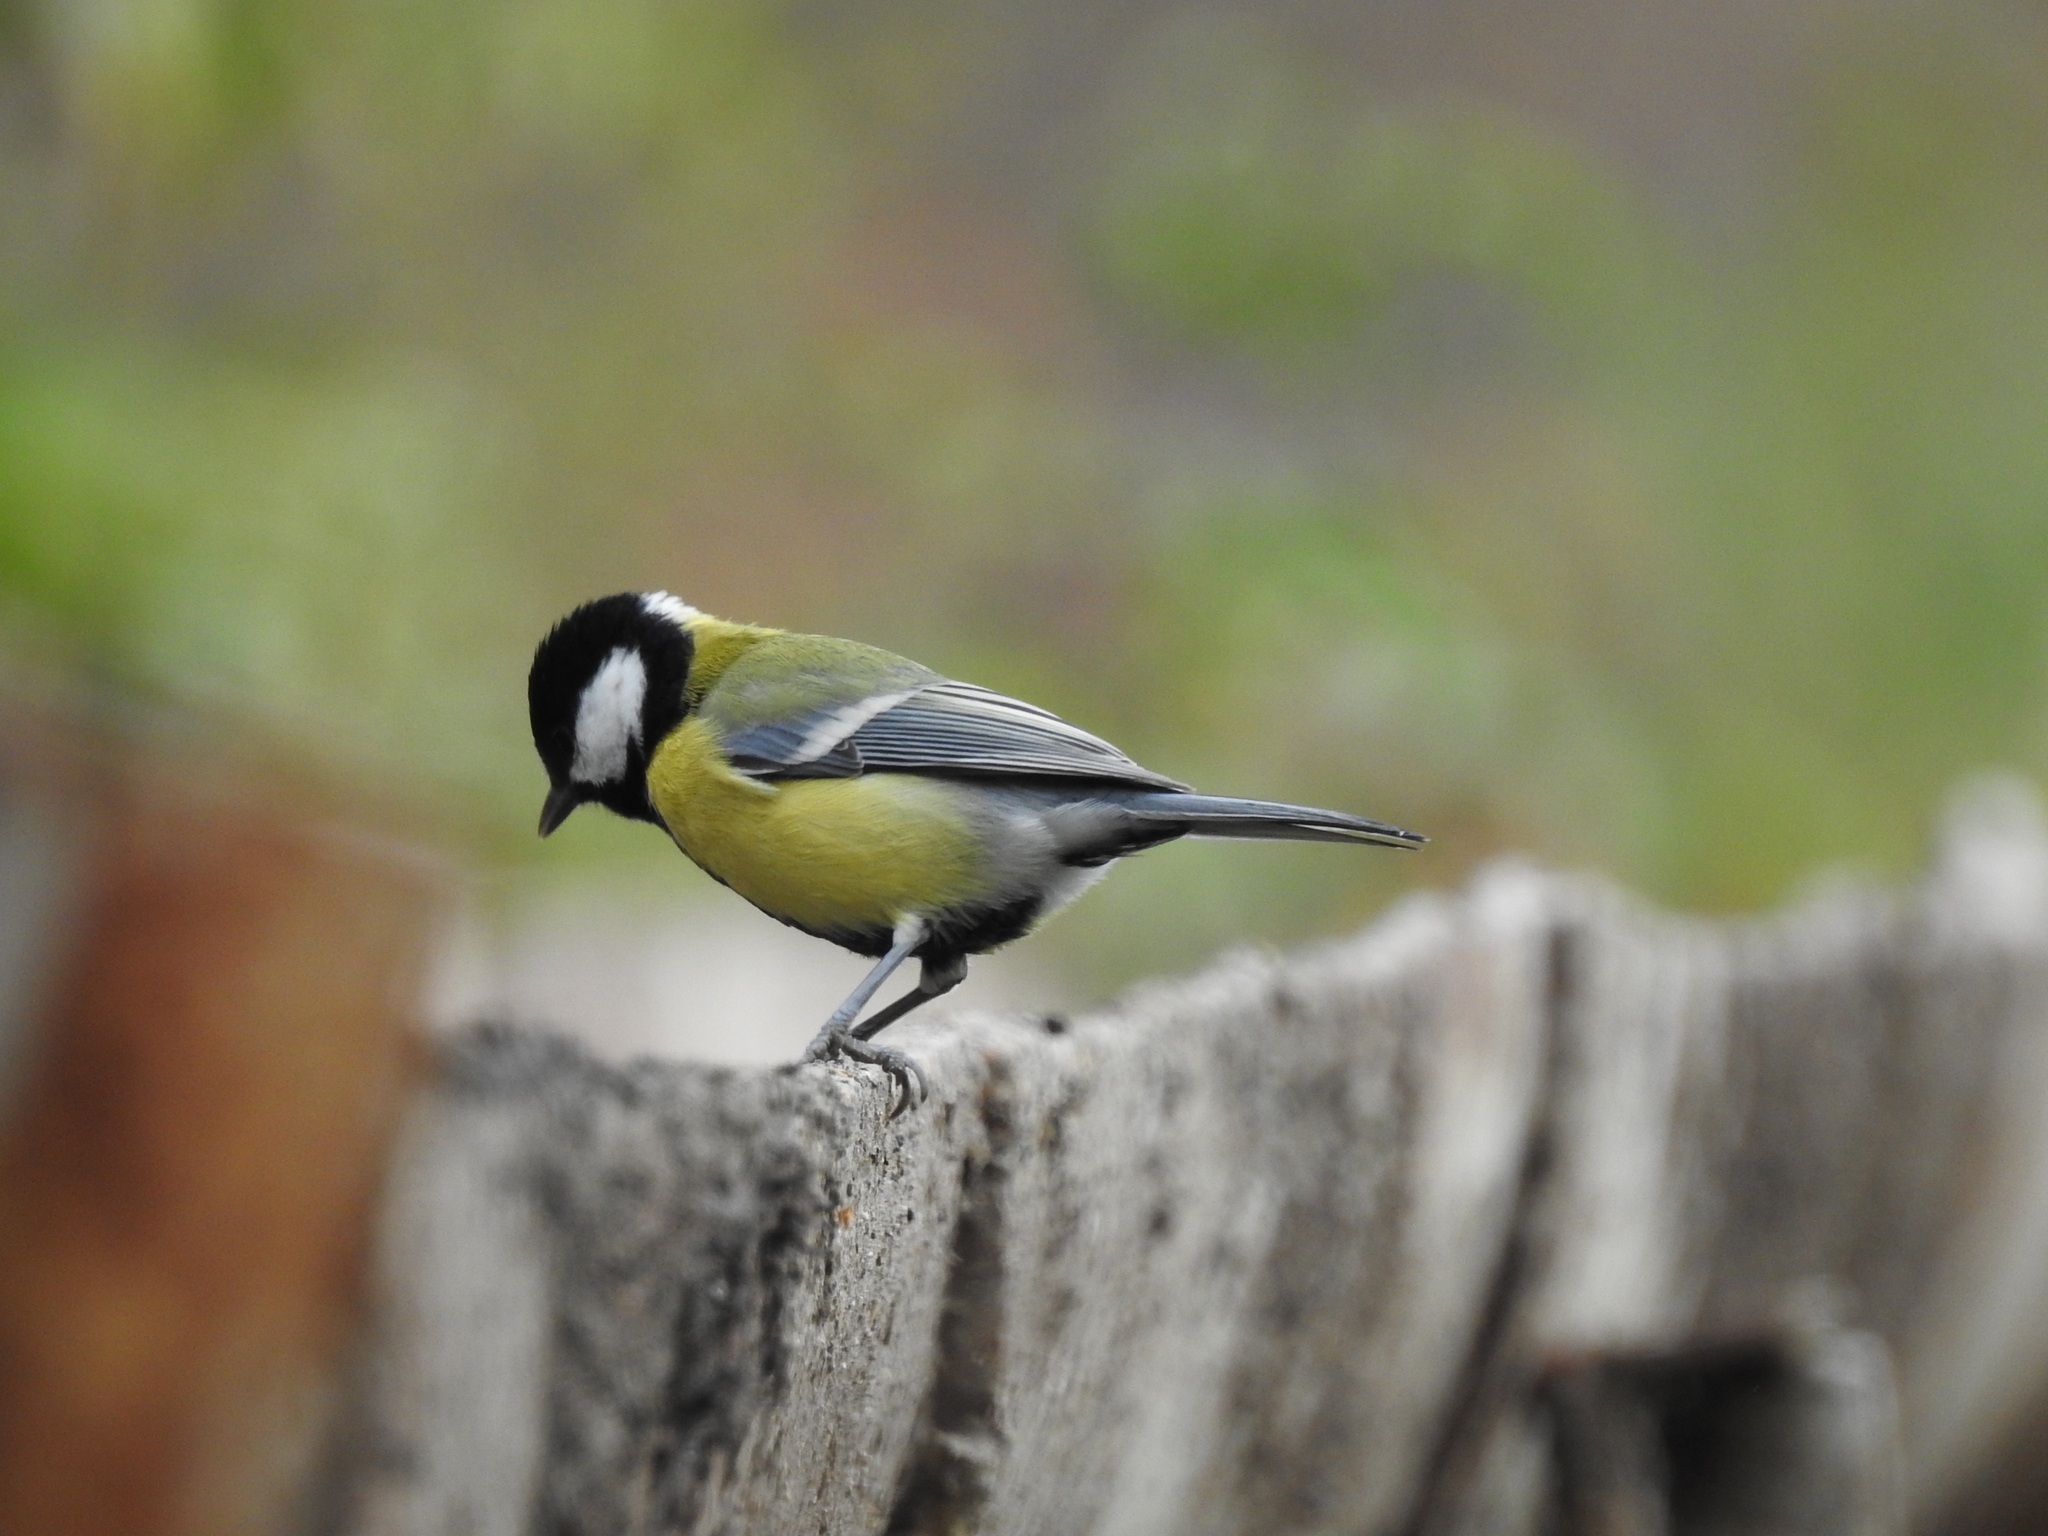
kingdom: Animalia
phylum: Chordata
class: Aves
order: Passeriformes
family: Paridae
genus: Parus
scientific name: Parus major
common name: Great tit
